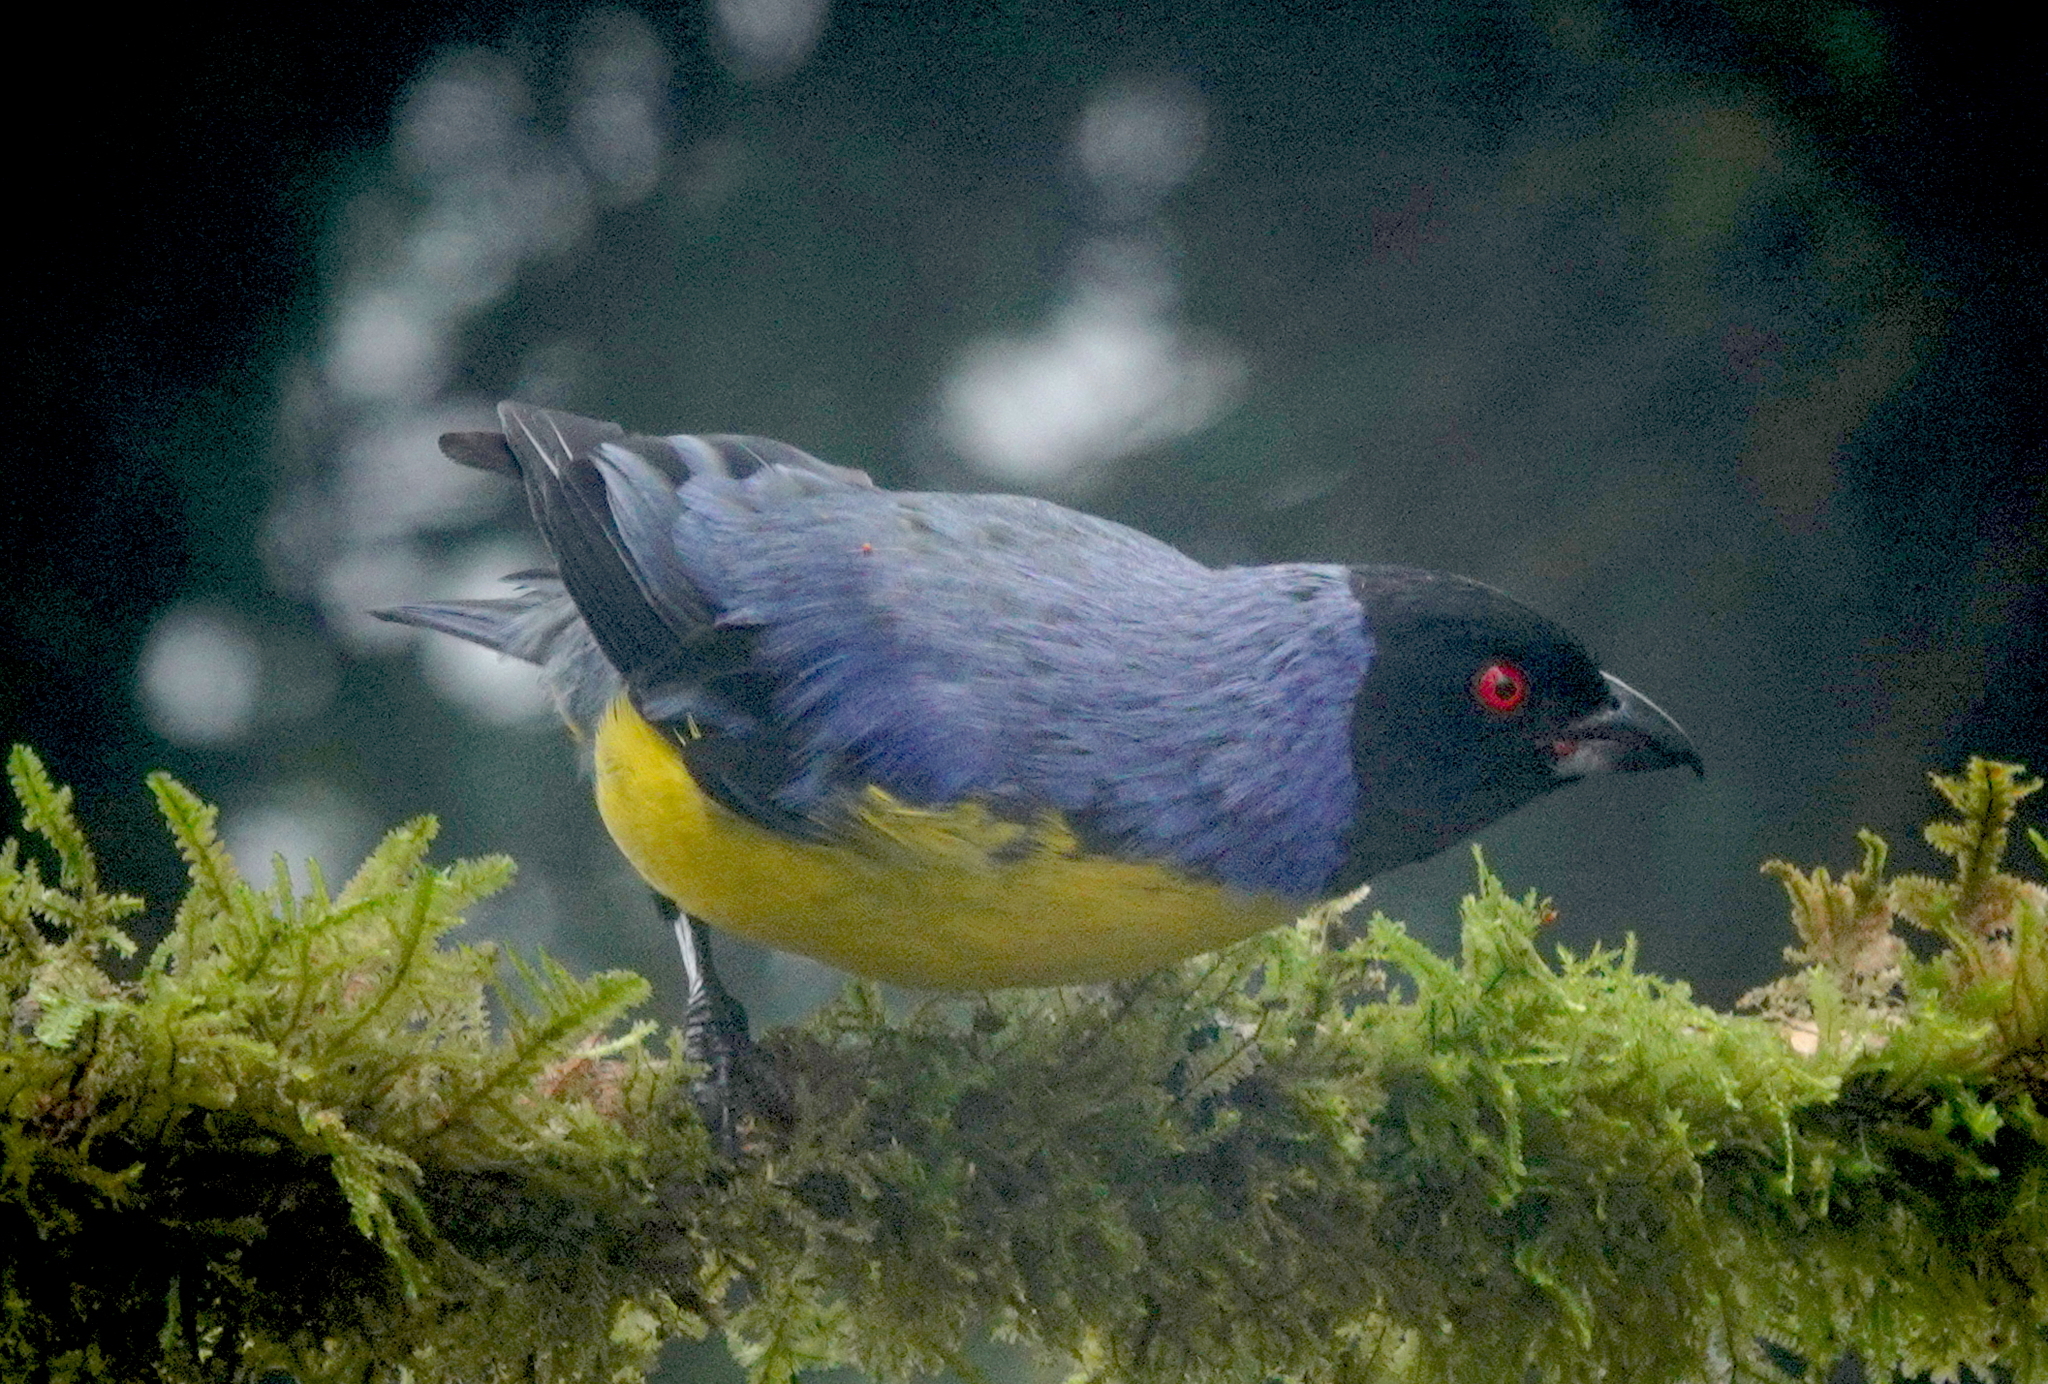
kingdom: Animalia
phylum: Chordata
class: Aves
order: Passeriformes
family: Thraupidae
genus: Buthraupis
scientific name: Buthraupis montana
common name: Hooded mountain tanager
